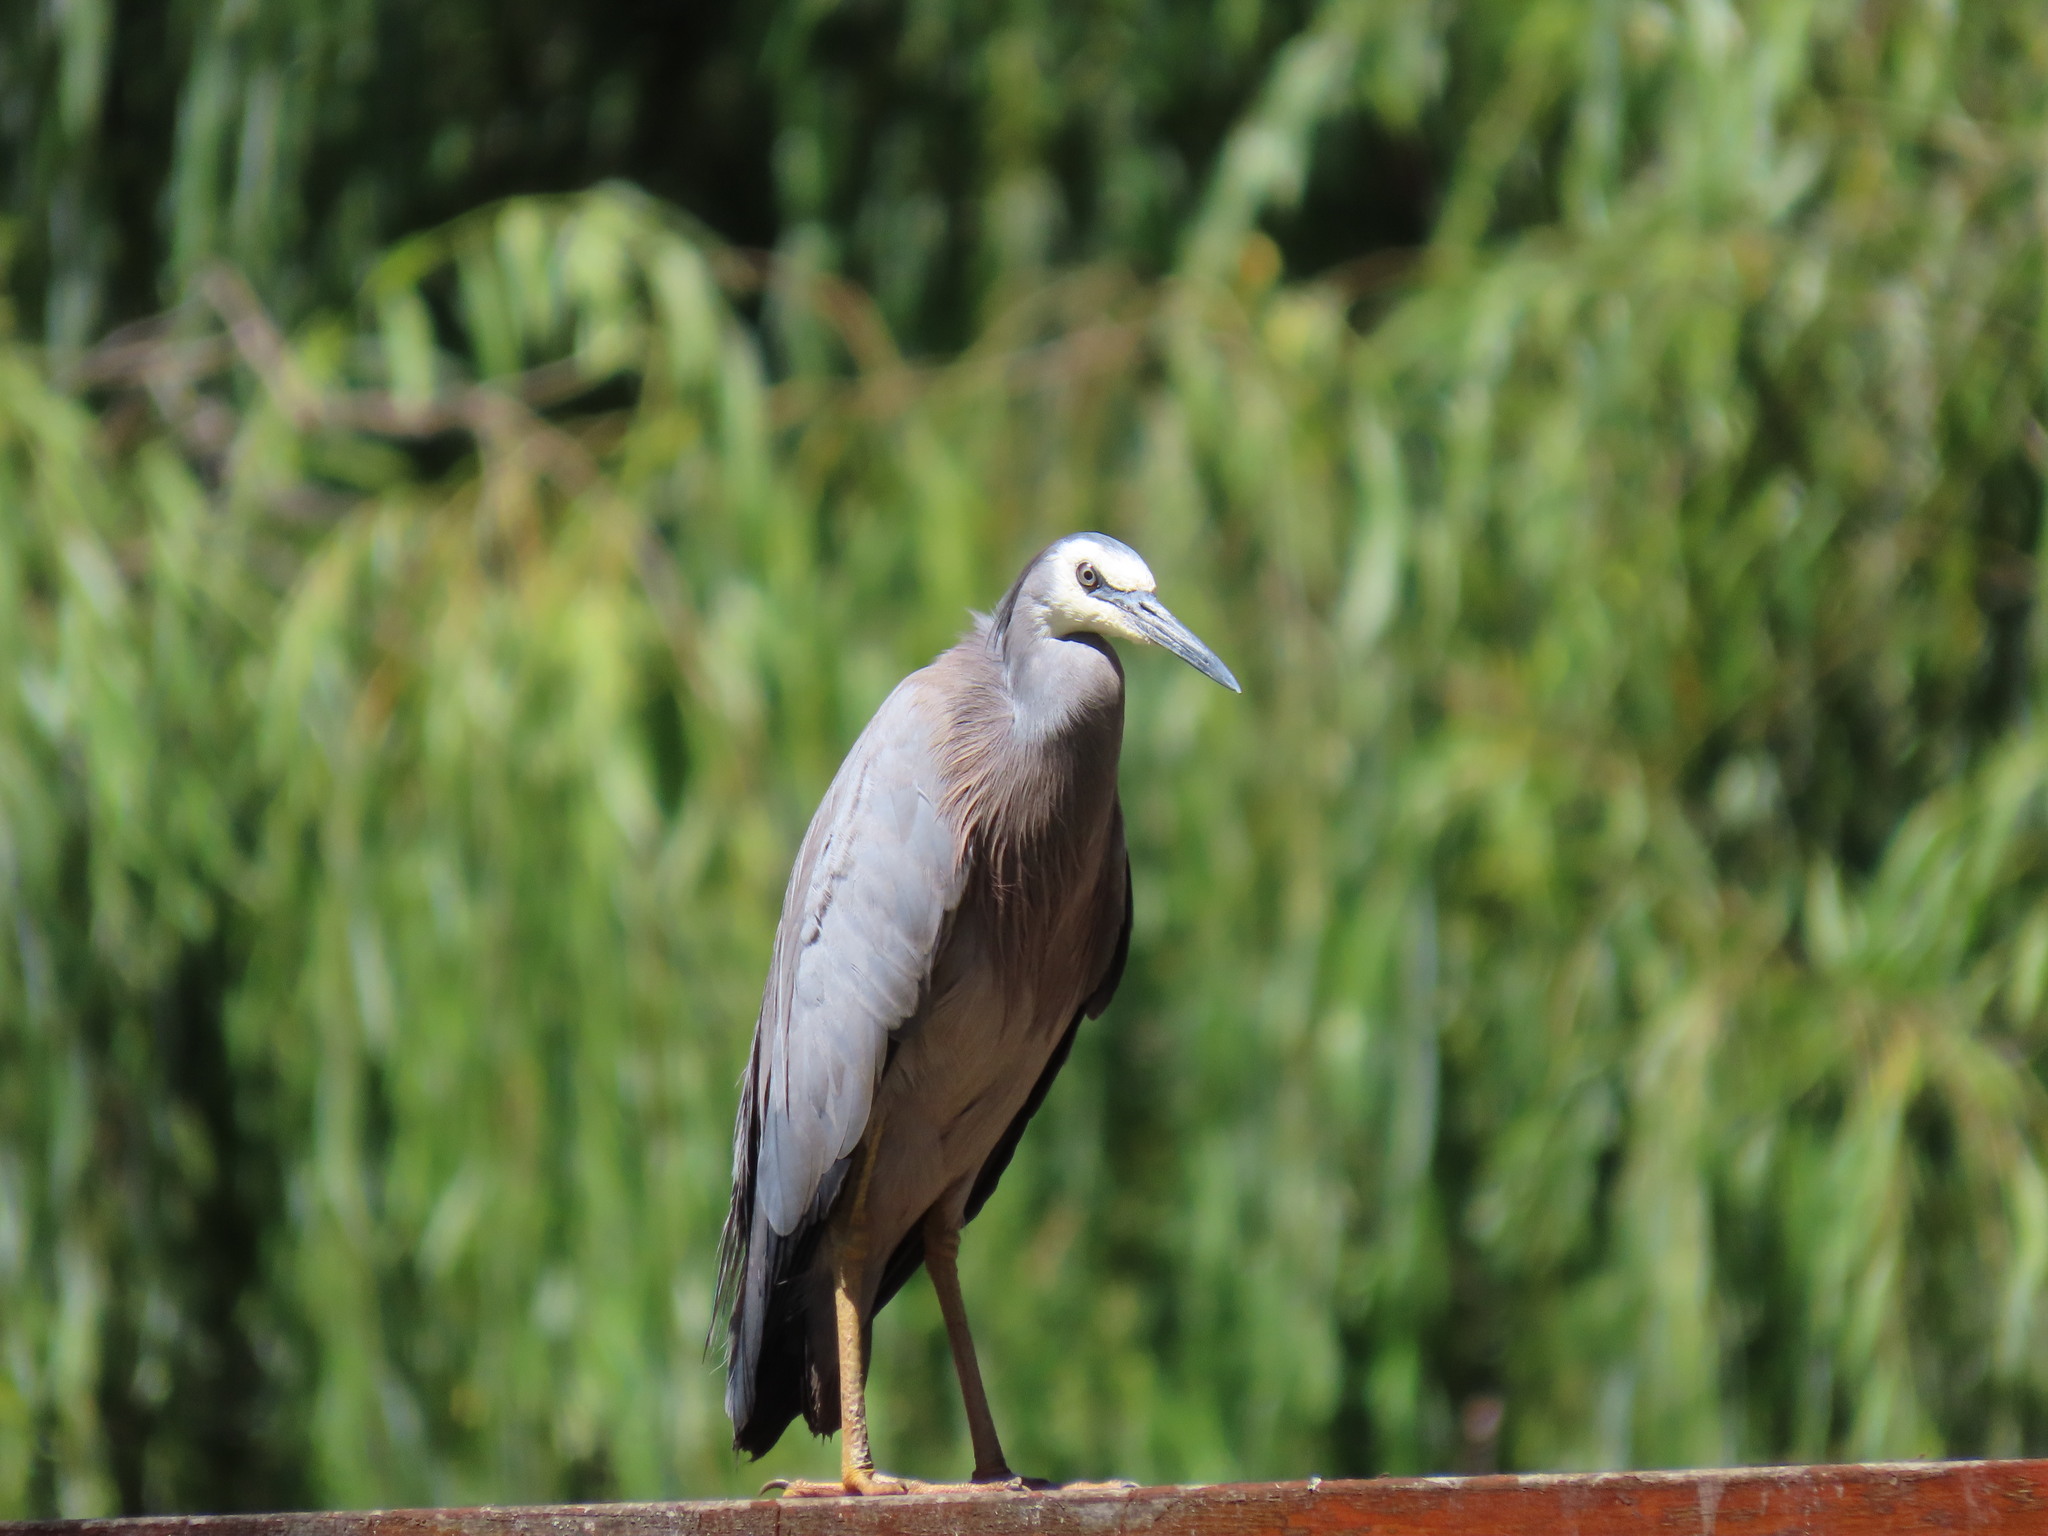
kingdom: Animalia
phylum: Chordata
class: Aves
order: Pelecaniformes
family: Ardeidae
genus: Egretta
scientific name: Egretta novaehollandiae
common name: White-faced heron
